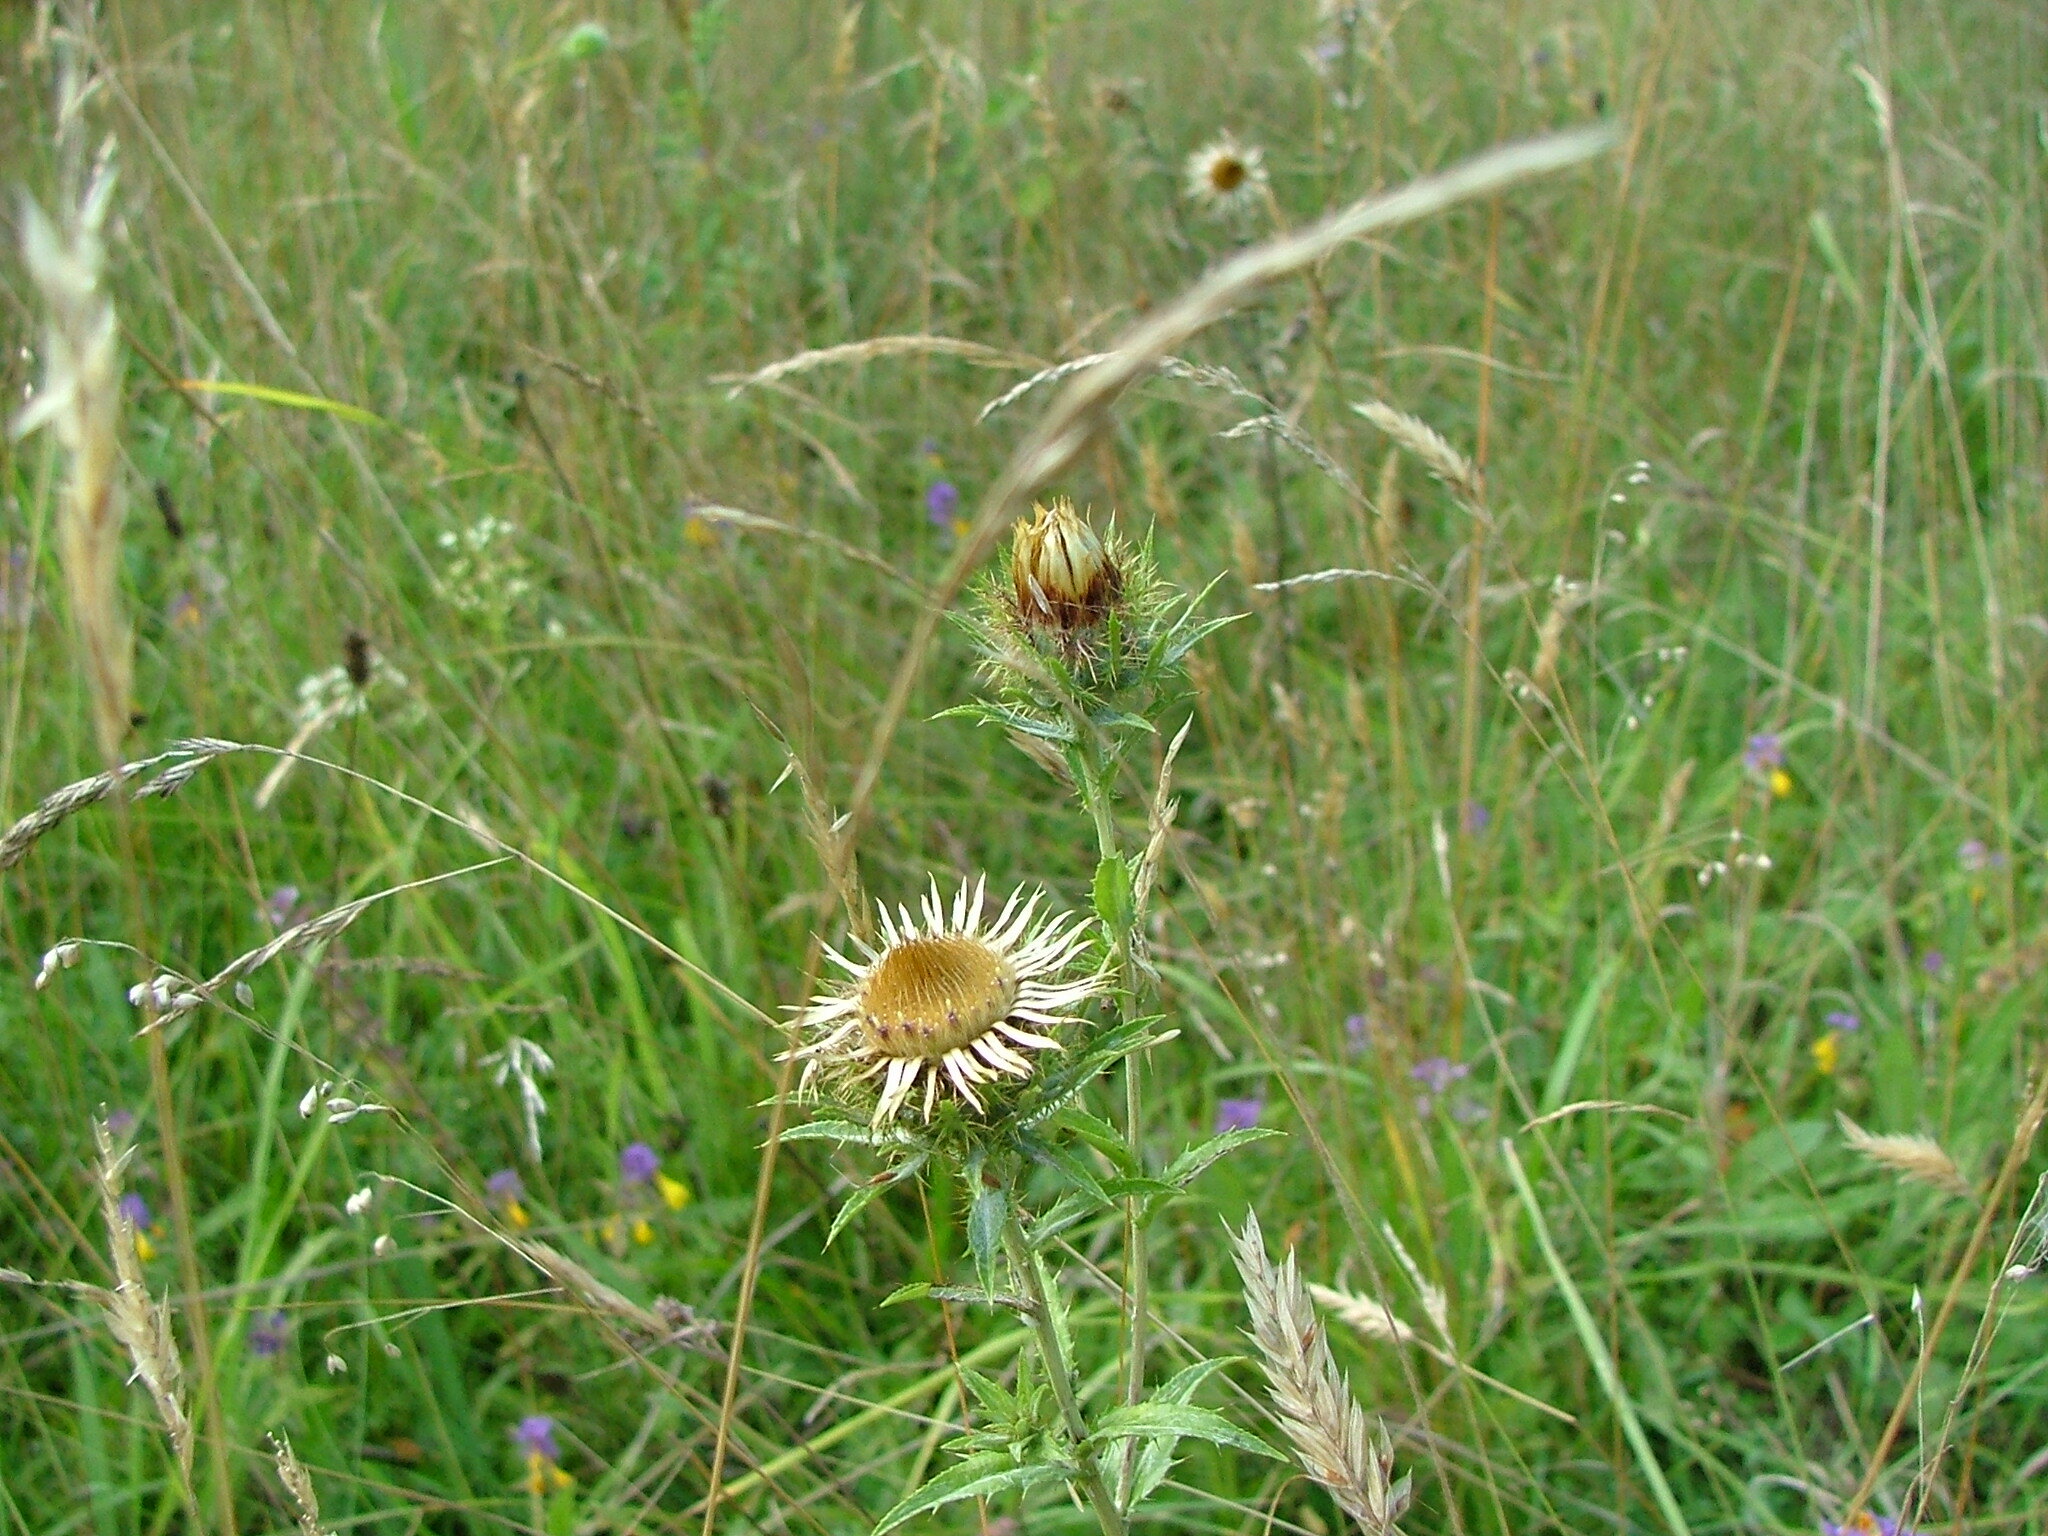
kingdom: Plantae
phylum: Tracheophyta
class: Magnoliopsida
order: Asterales
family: Asteraceae
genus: Carlina
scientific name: Carlina biebersteinii
